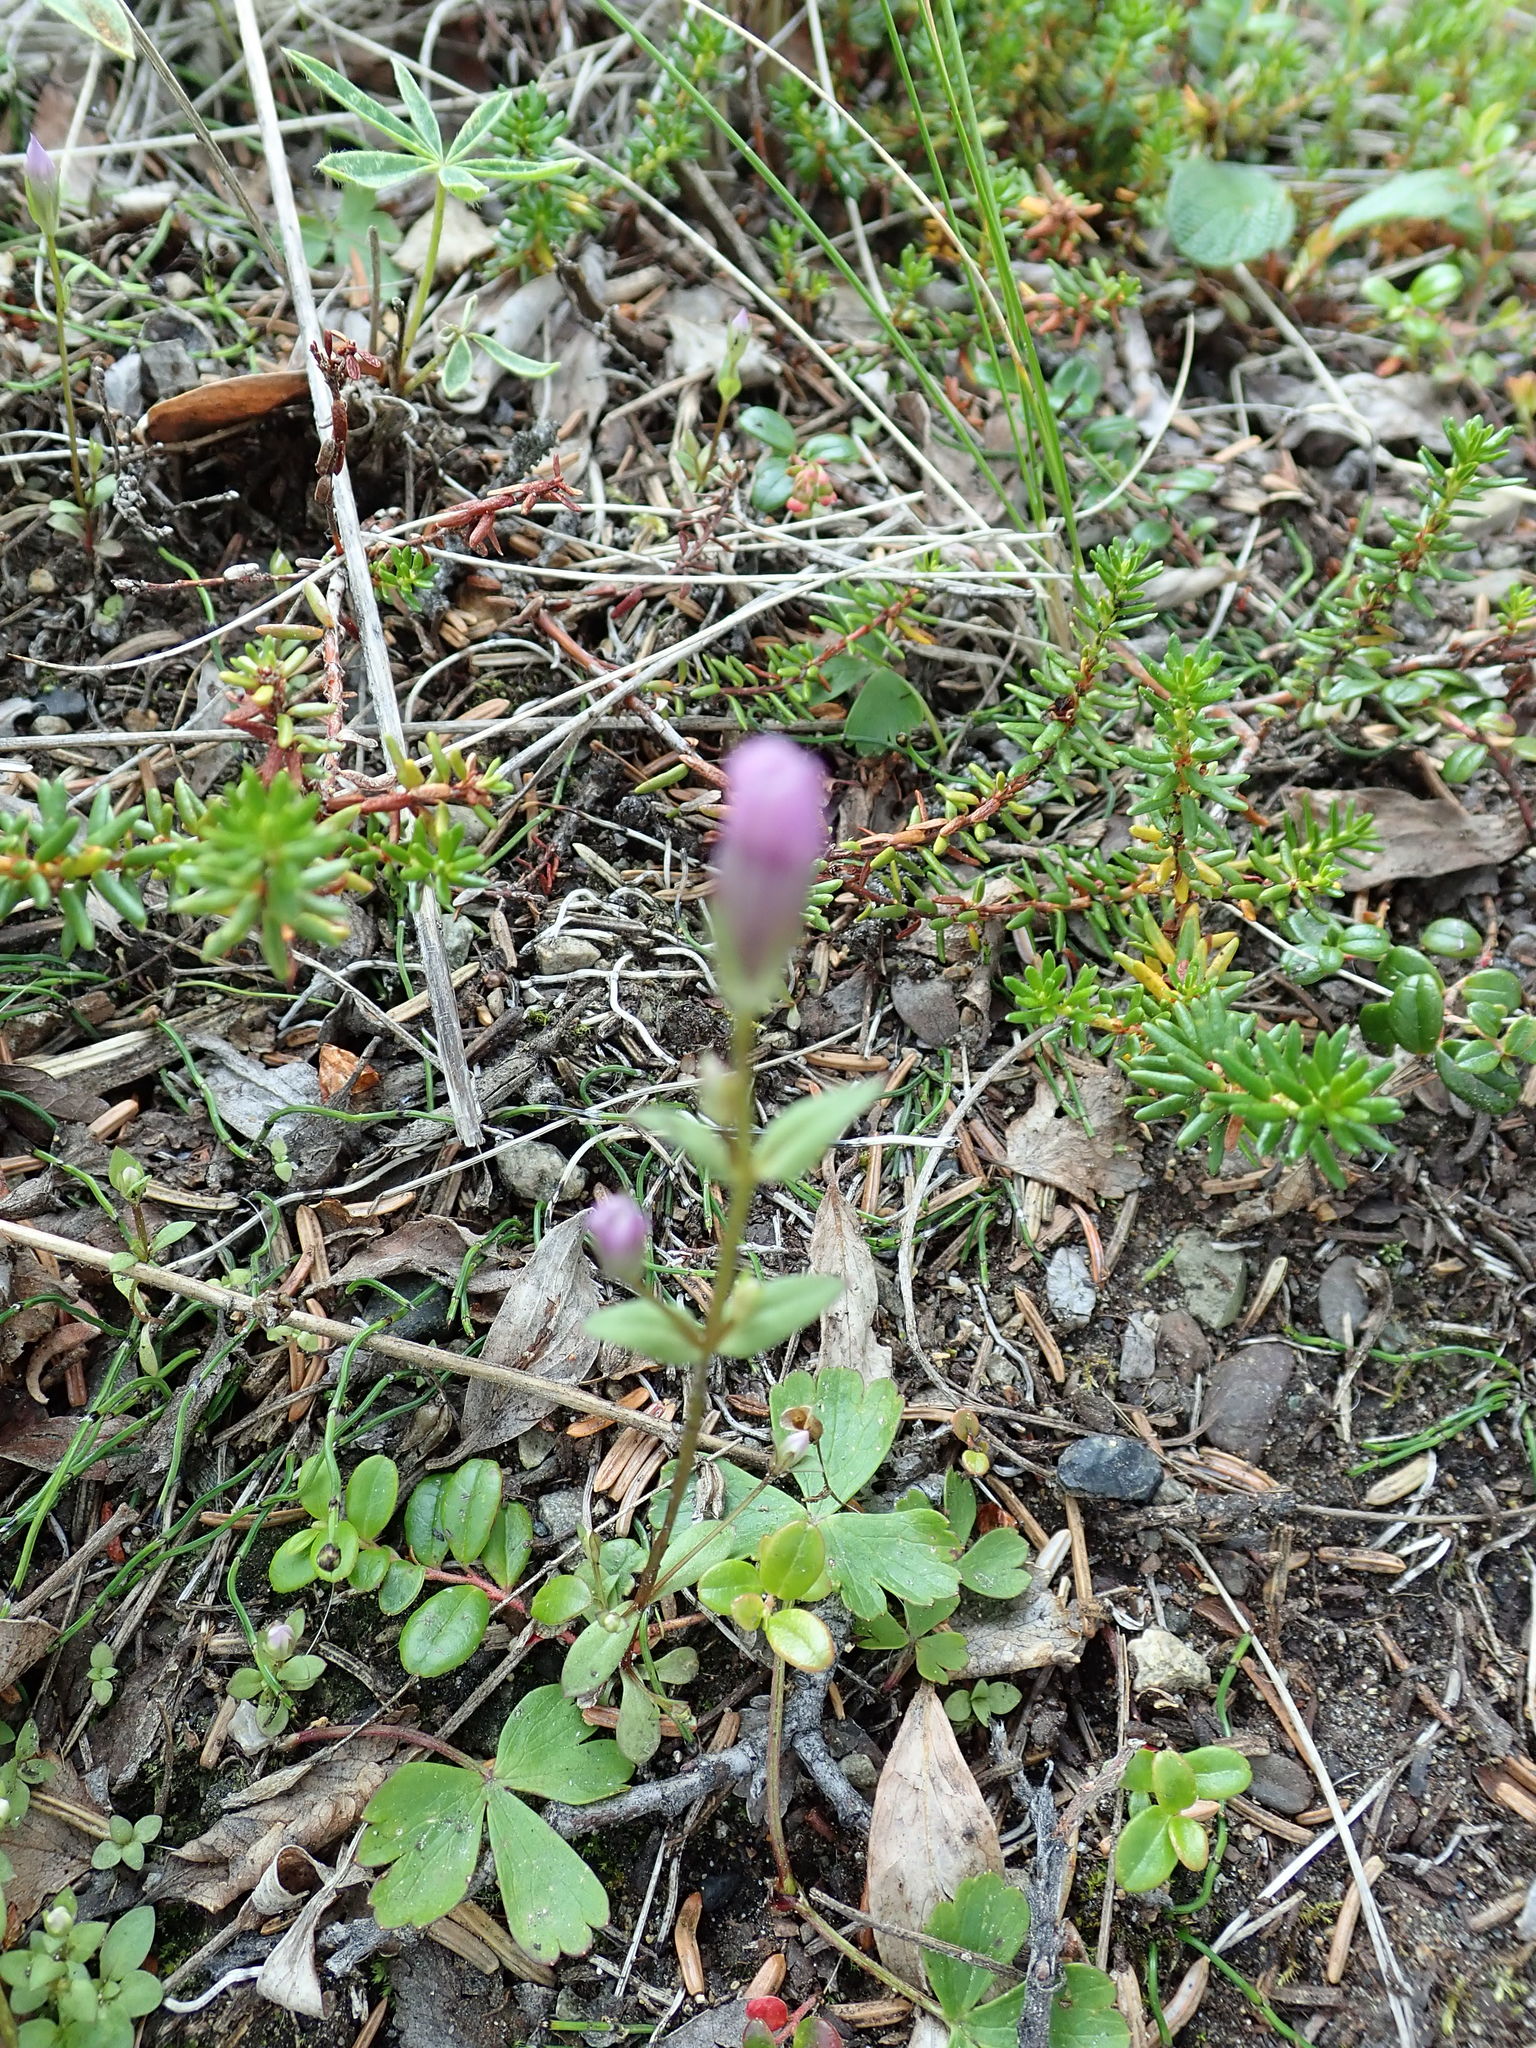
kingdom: Plantae
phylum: Tracheophyta
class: Magnoliopsida
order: Gentianales
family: Gentianaceae
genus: Gentianella
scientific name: Gentianella propinqua
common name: Four-parted dwarf-gentian
